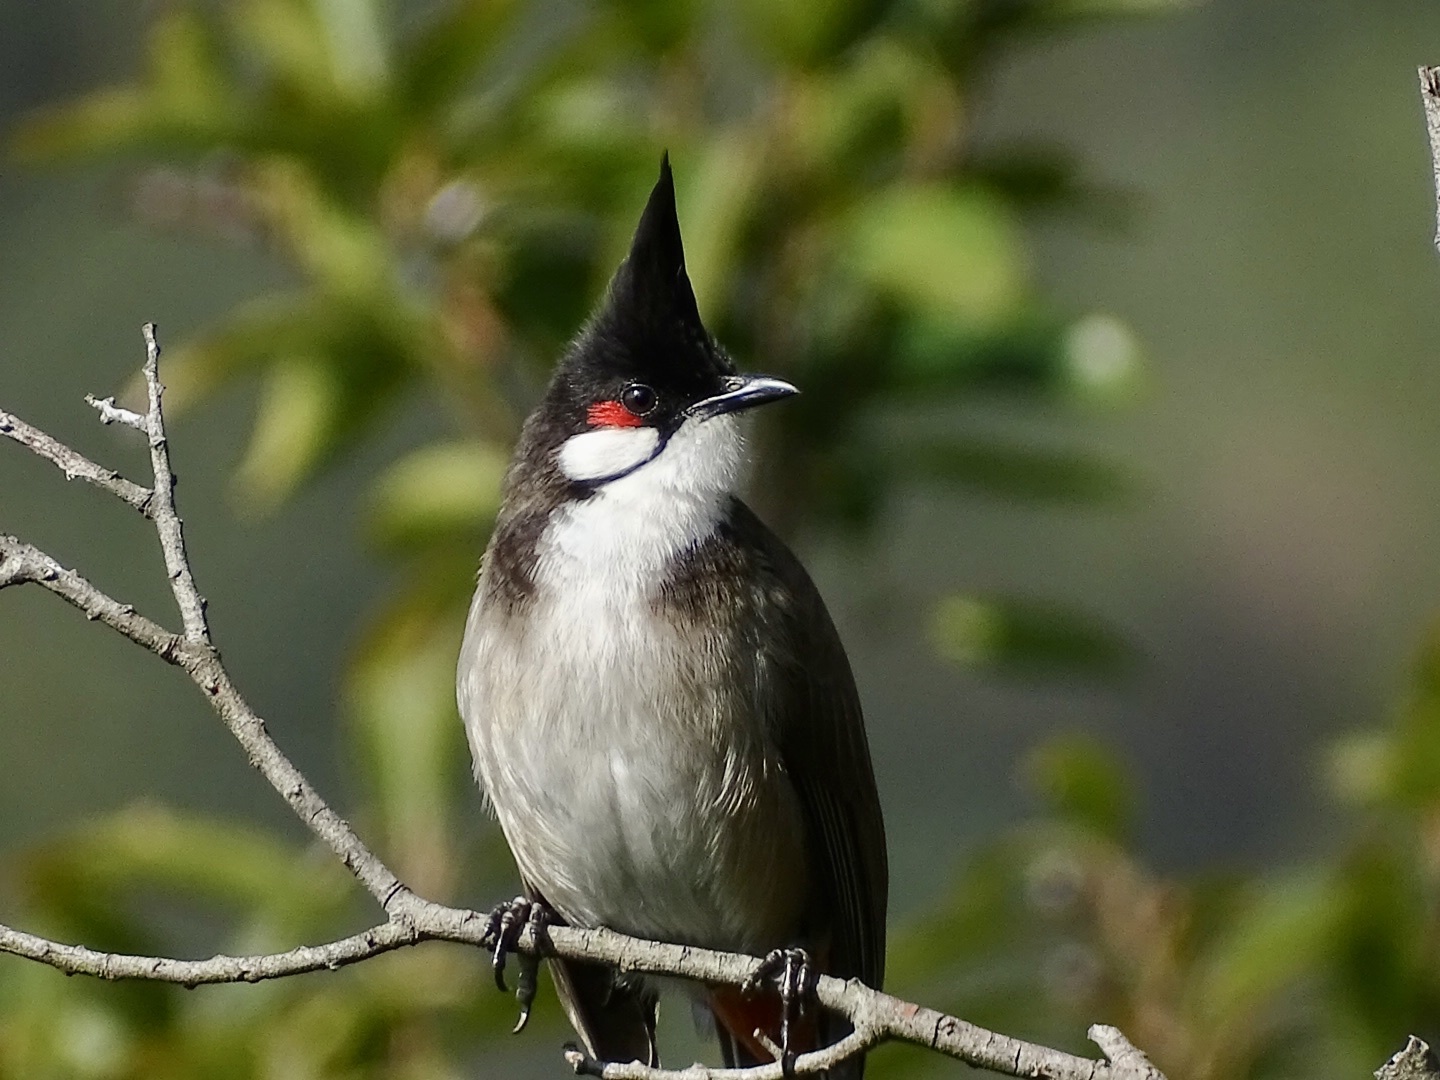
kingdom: Animalia
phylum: Chordata
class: Aves
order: Passeriformes
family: Pycnonotidae
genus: Pycnonotus
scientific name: Pycnonotus jocosus
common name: Red-whiskered bulbul
